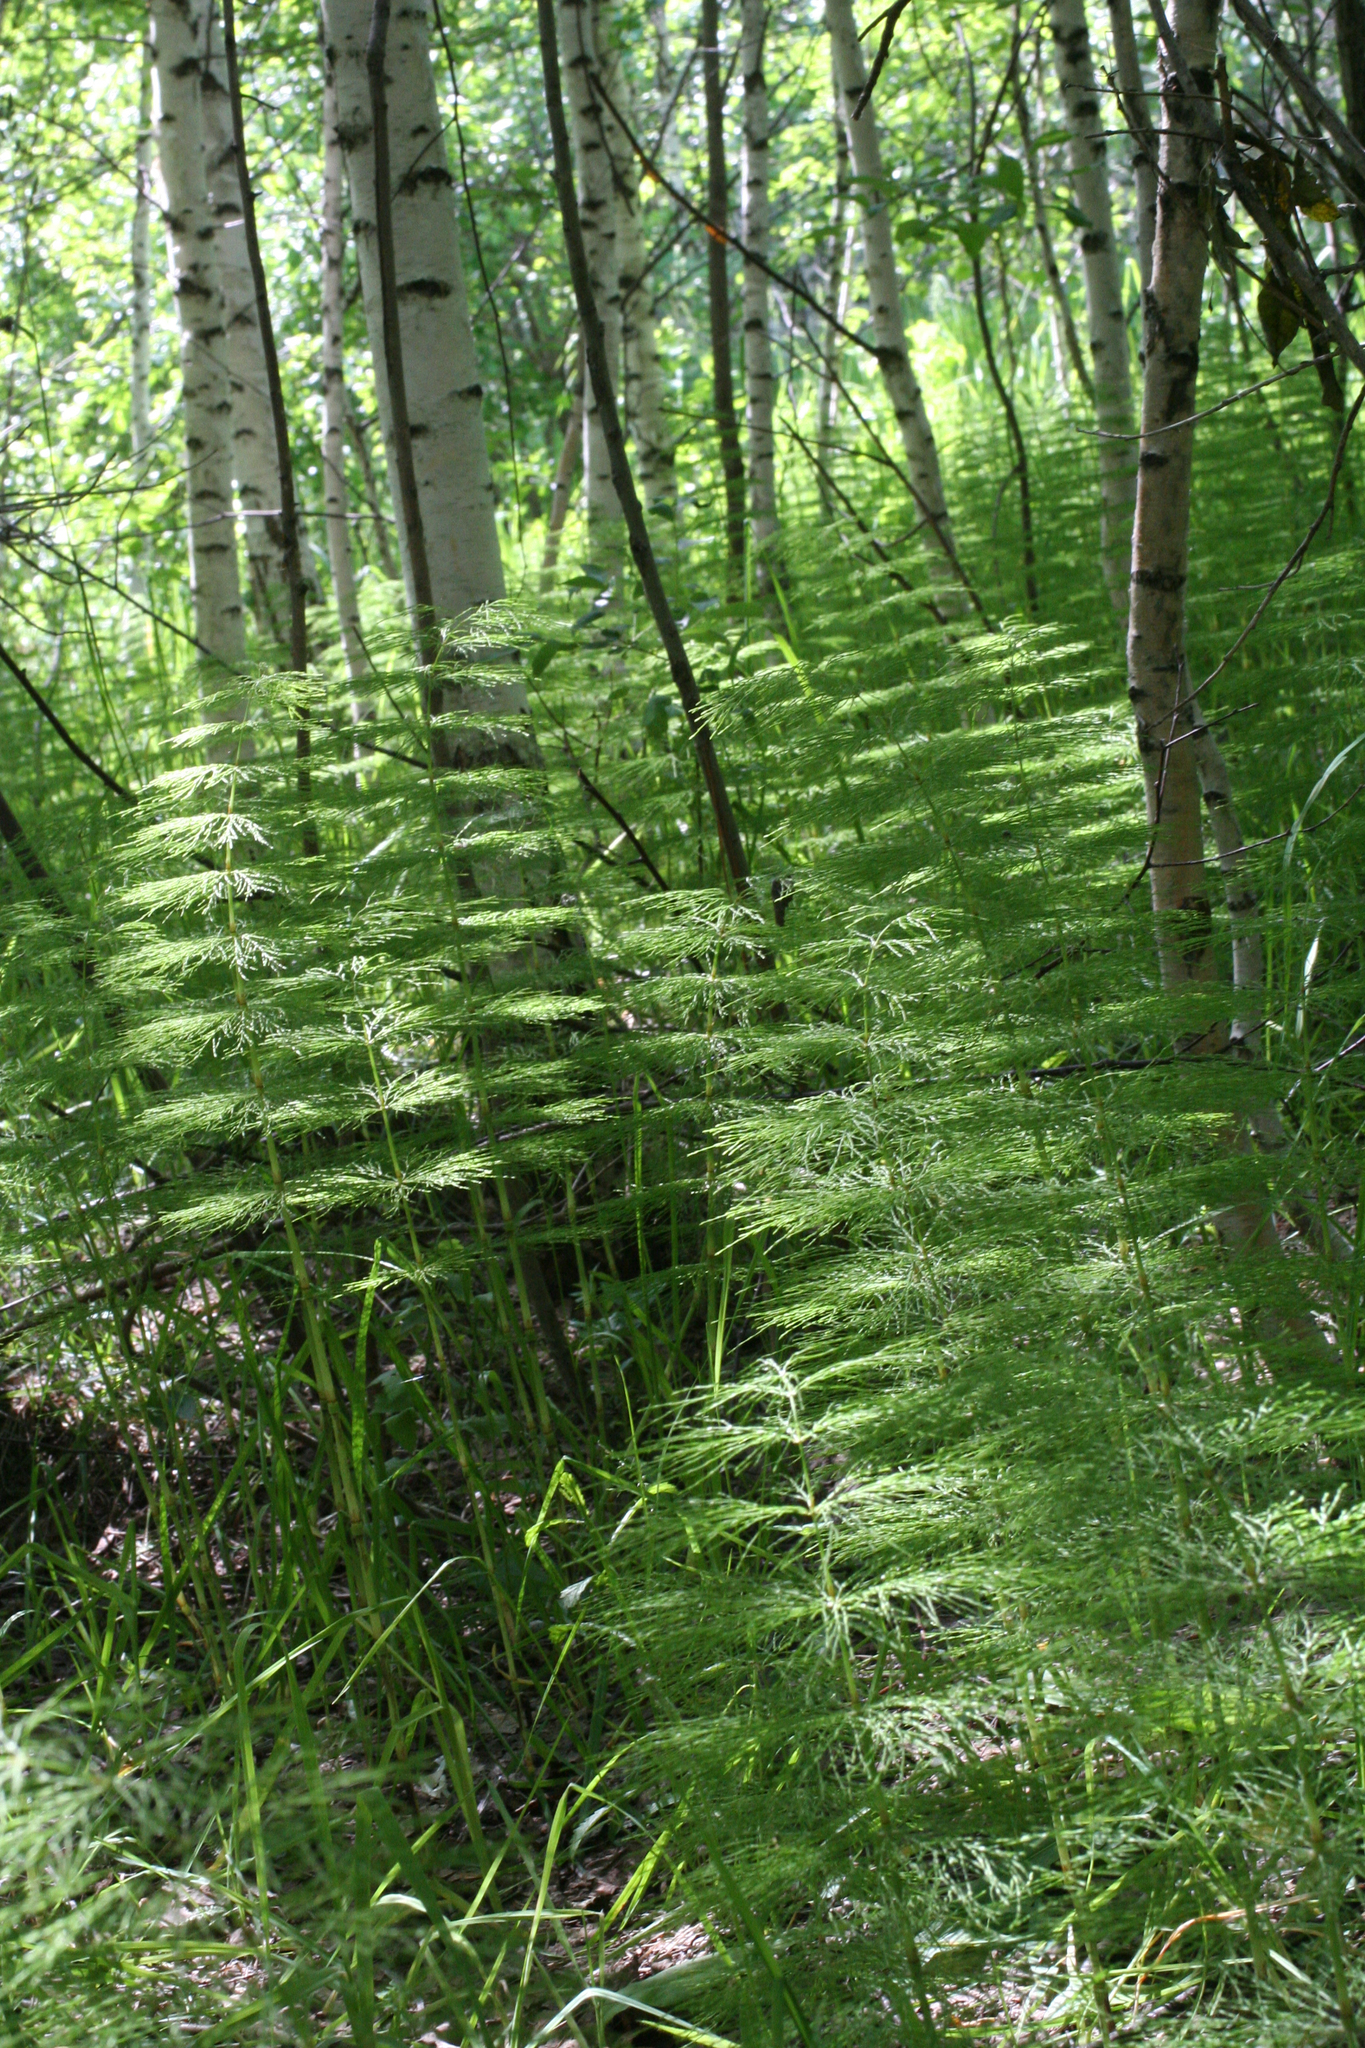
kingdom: Plantae
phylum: Tracheophyta
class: Polypodiopsida
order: Equisetales
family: Equisetaceae
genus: Equisetum
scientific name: Equisetum sylvaticum
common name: Wood horsetail
